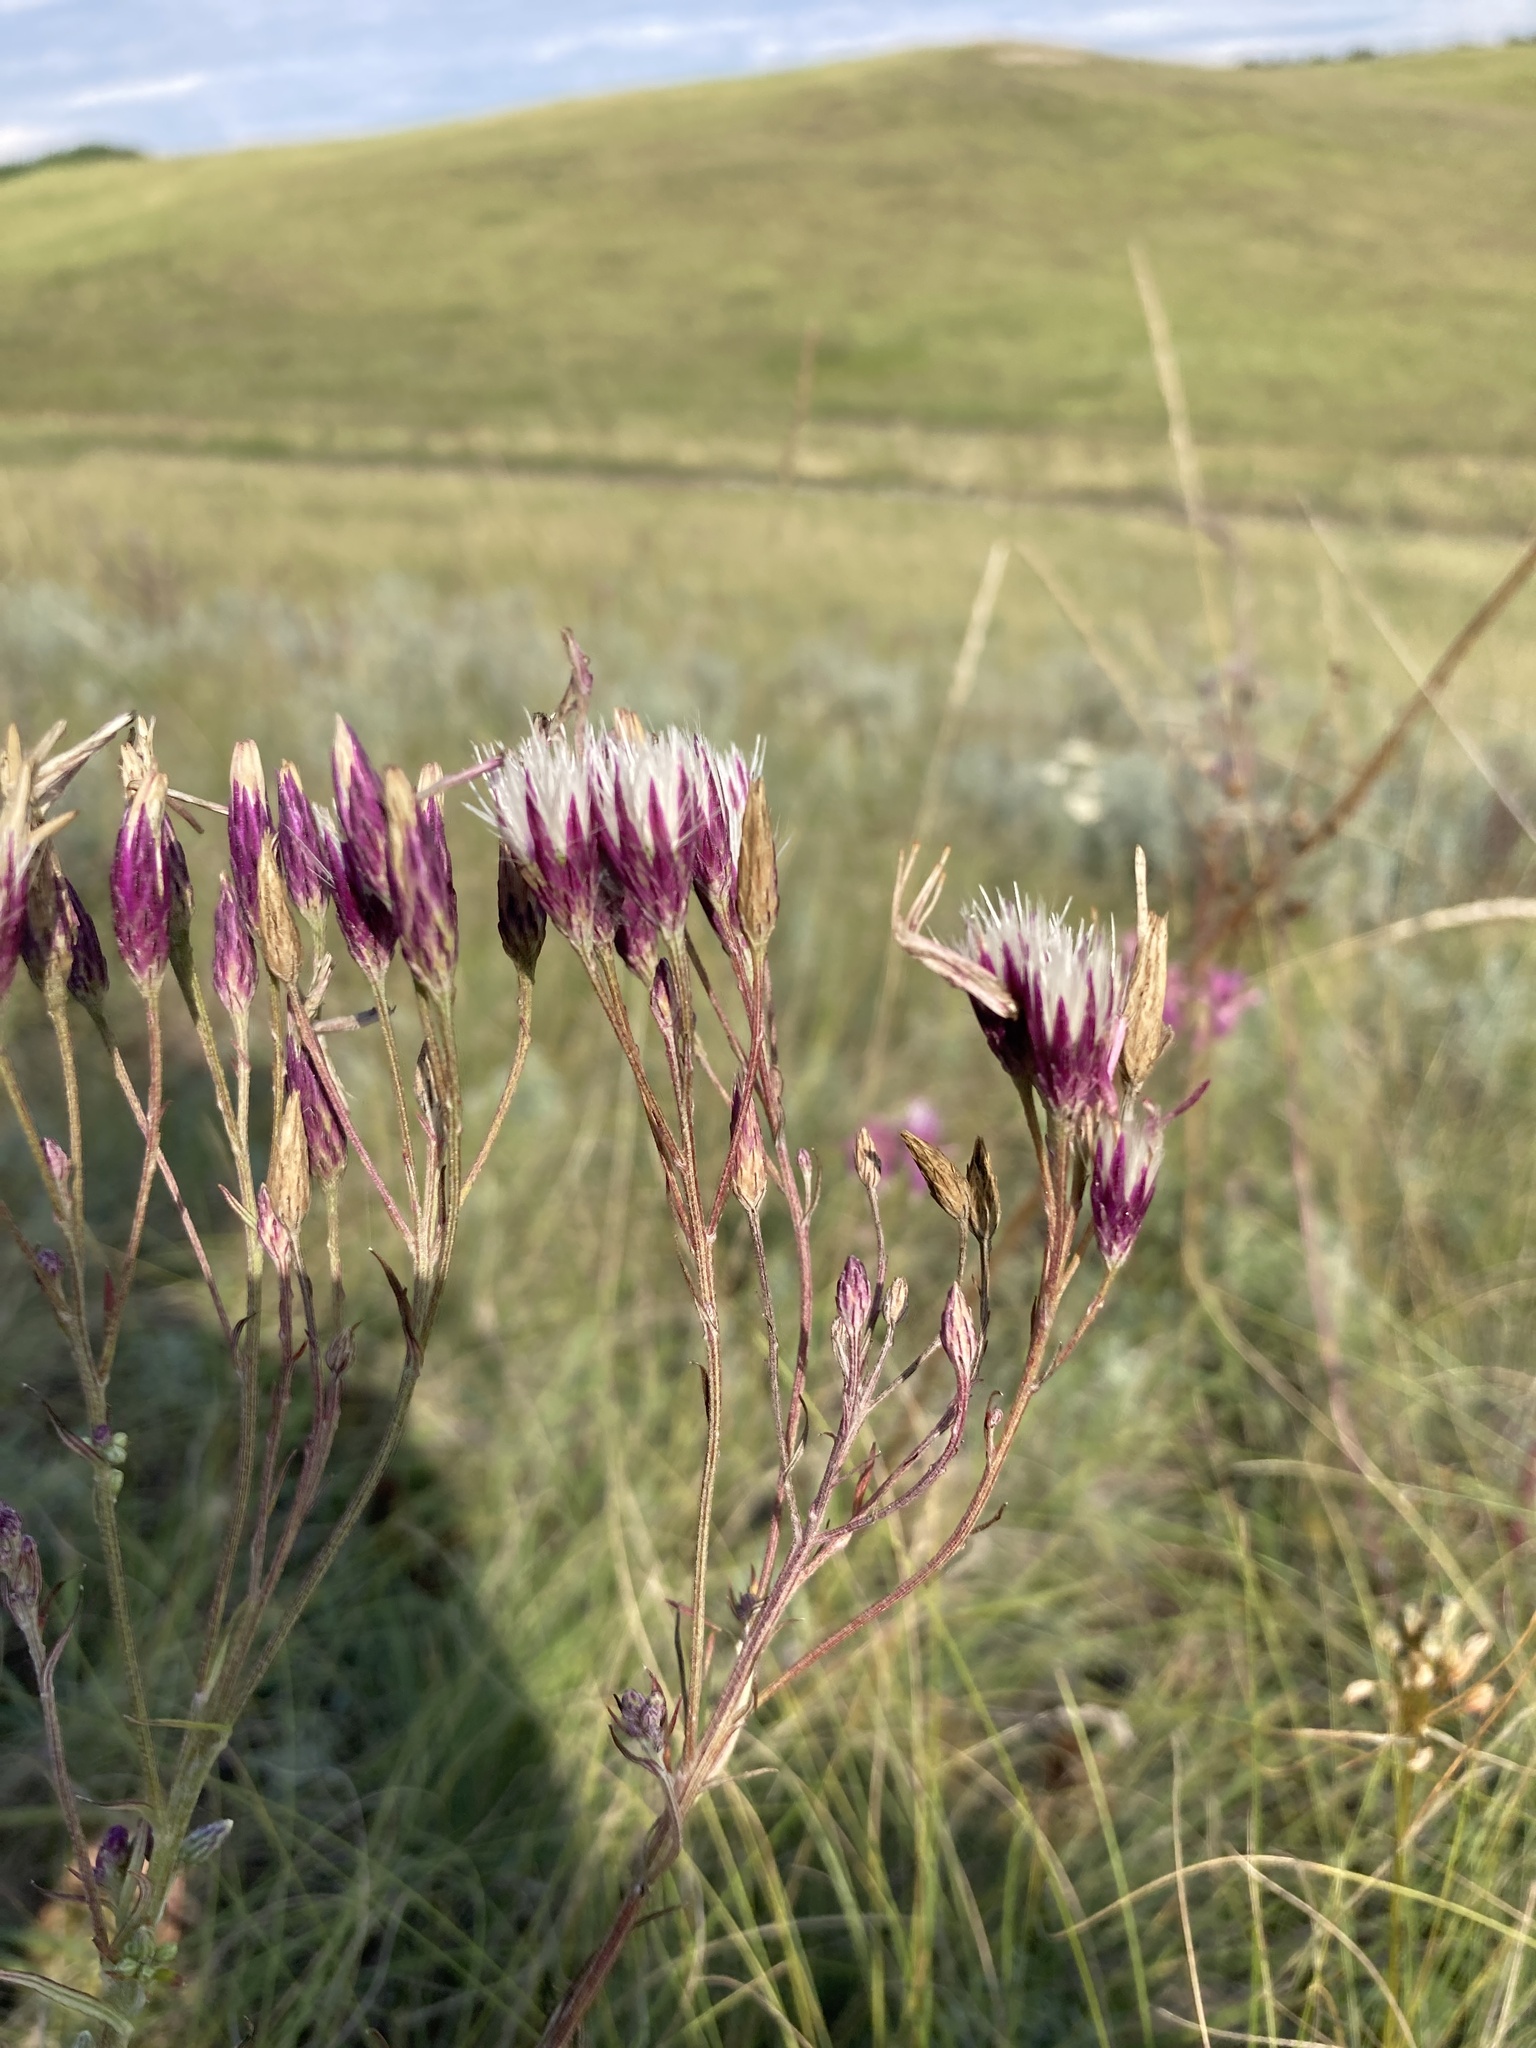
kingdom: Plantae
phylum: Tracheophyta
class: Magnoliopsida
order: Asterales
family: Asteraceae
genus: Jurinea
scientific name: Jurinea multiflora
